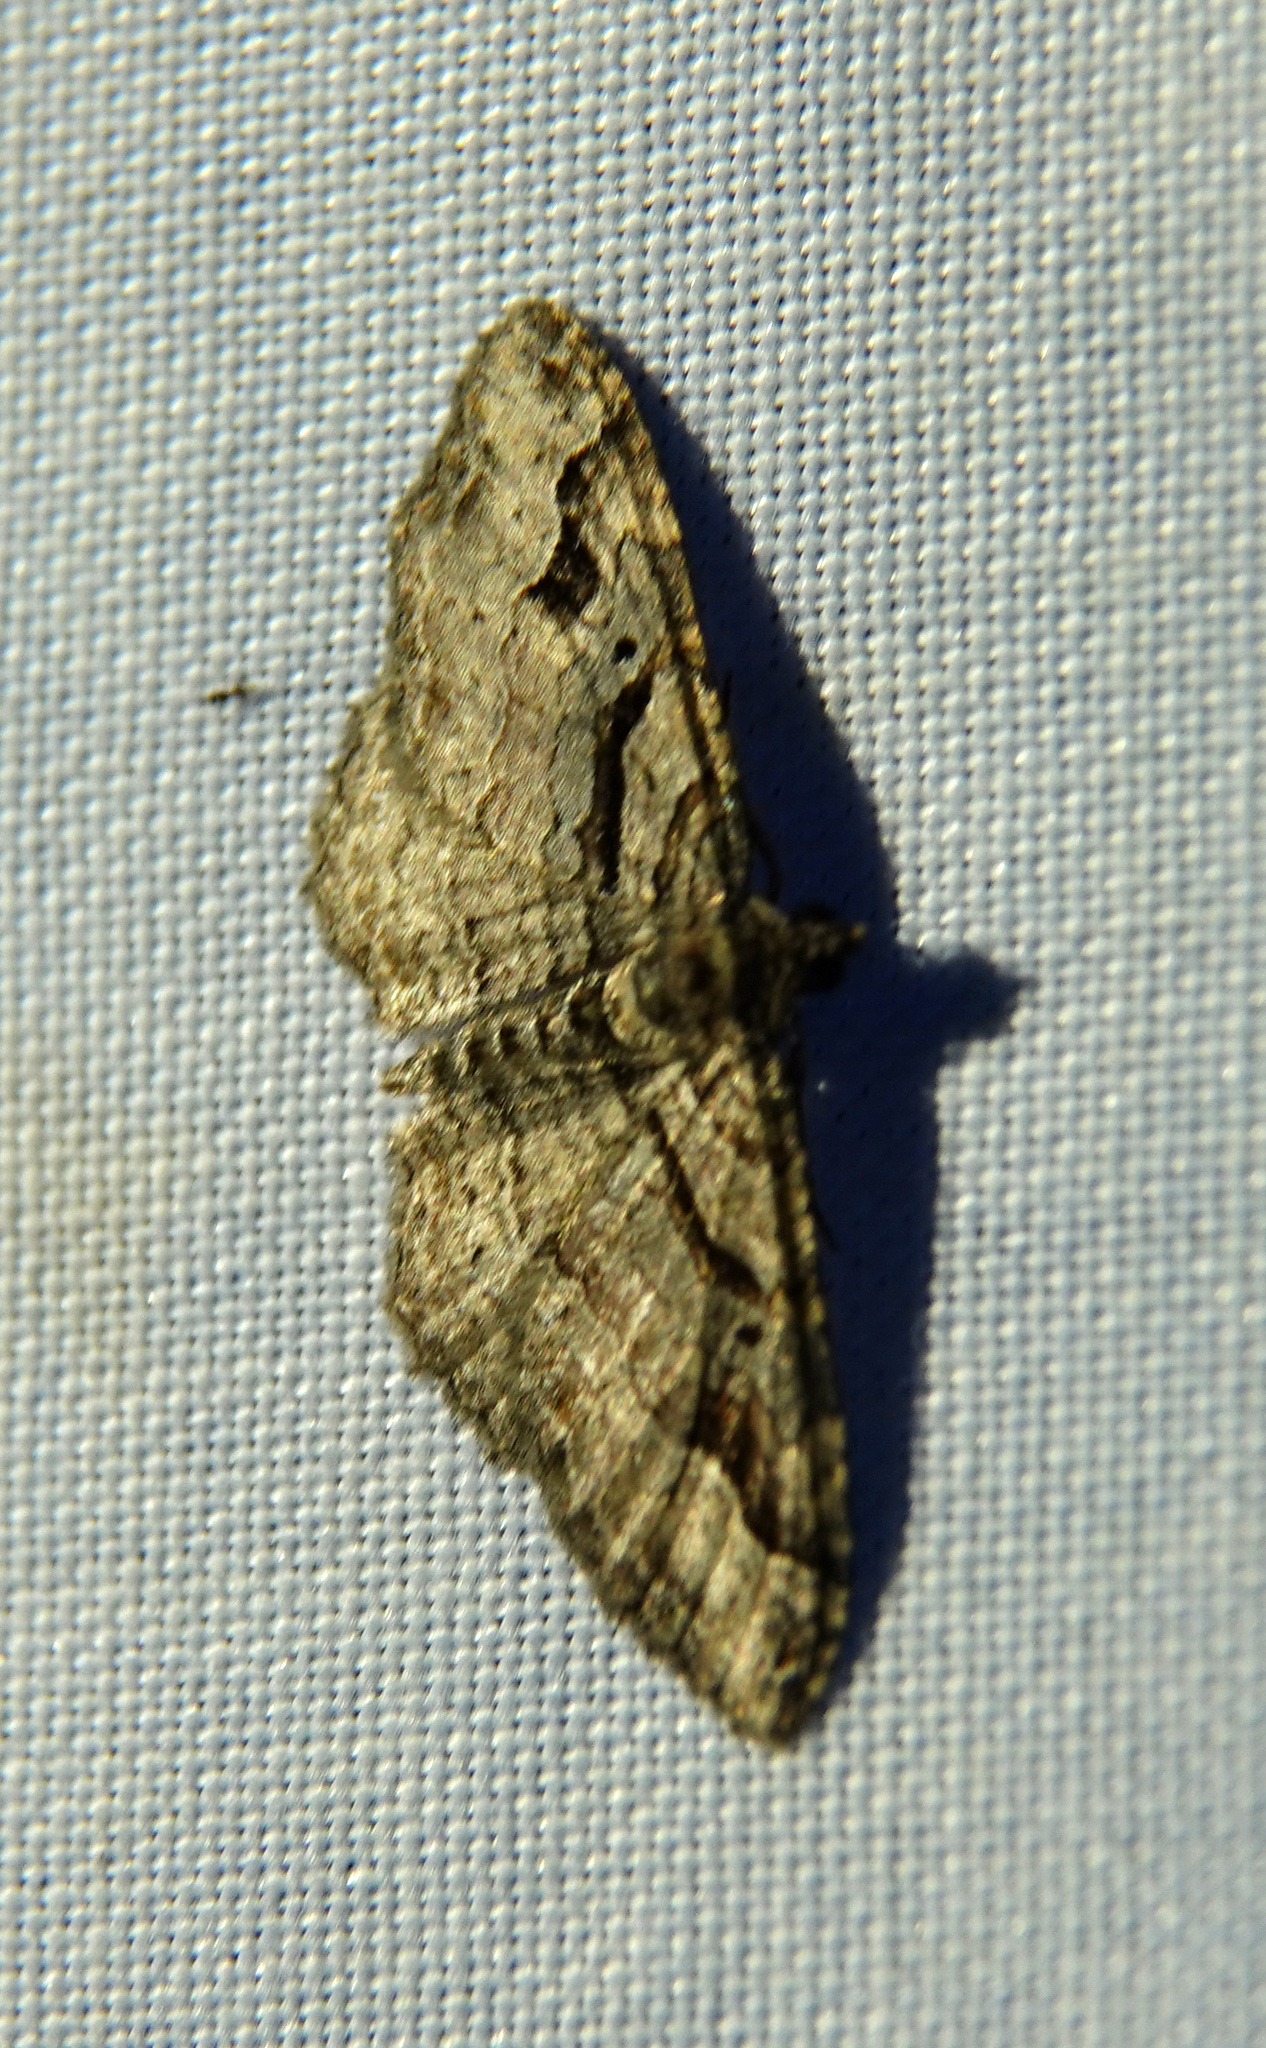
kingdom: Animalia
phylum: Arthropoda
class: Insecta
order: Lepidoptera
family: Geometridae
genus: Costaconvexa
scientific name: Costaconvexa centrostrigaria
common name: Bent-line carpet
